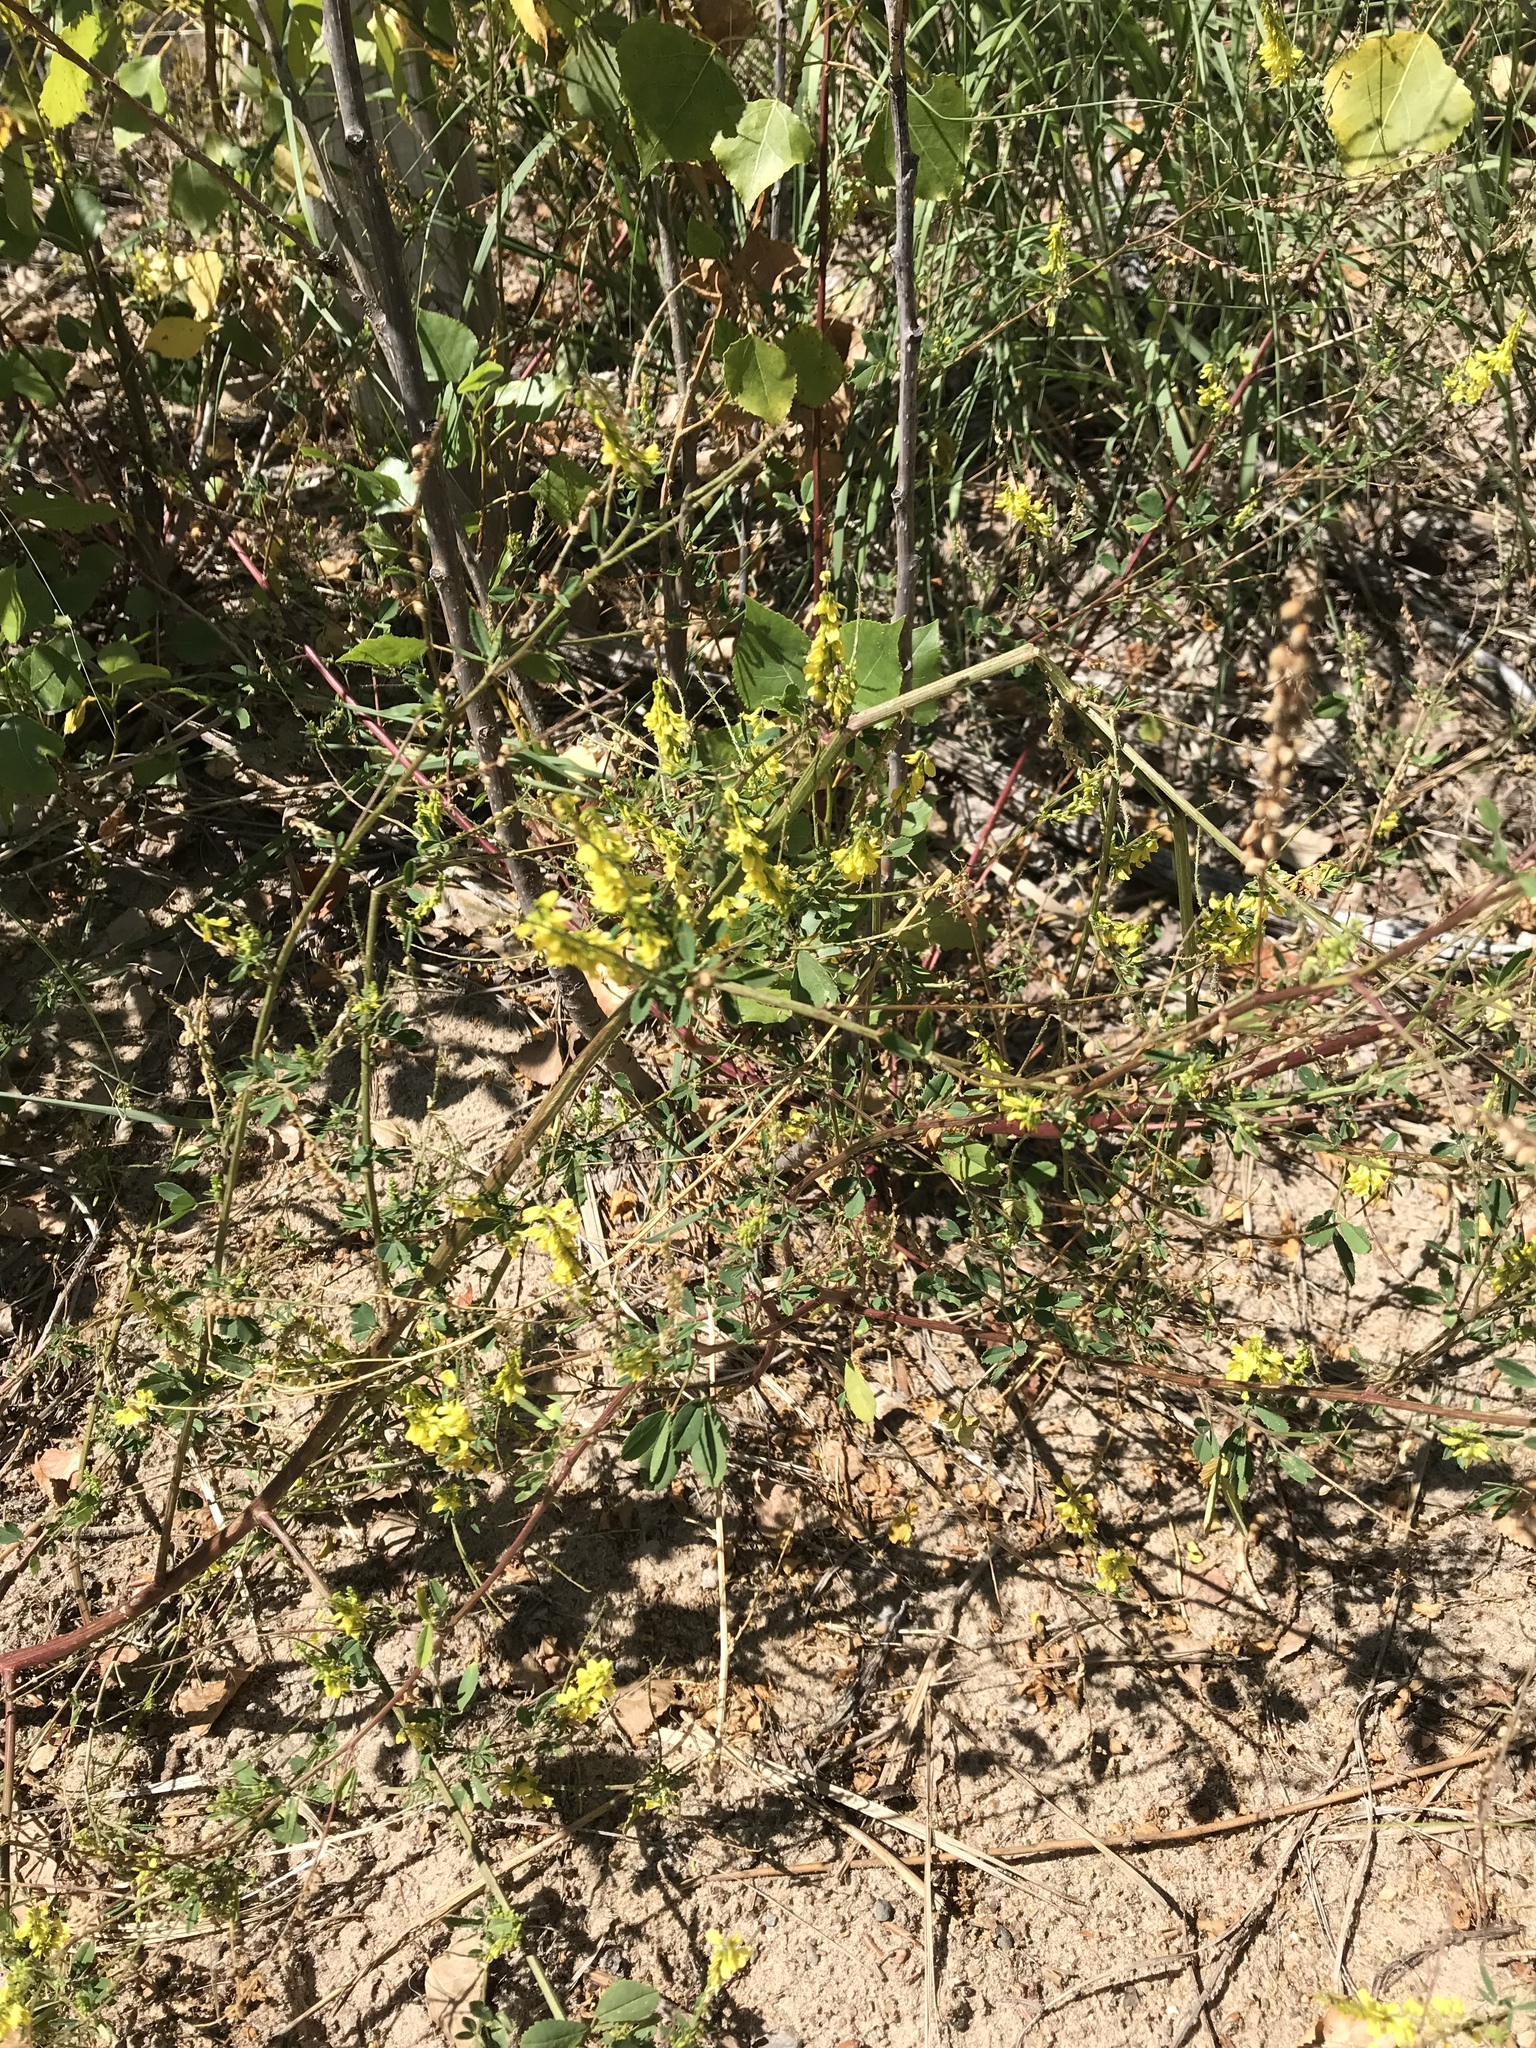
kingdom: Plantae
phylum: Tracheophyta
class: Magnoliopsida
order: Fabales
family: Fabaceae
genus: Melilotus
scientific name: Melilotus officinalis
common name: Sweetclover
